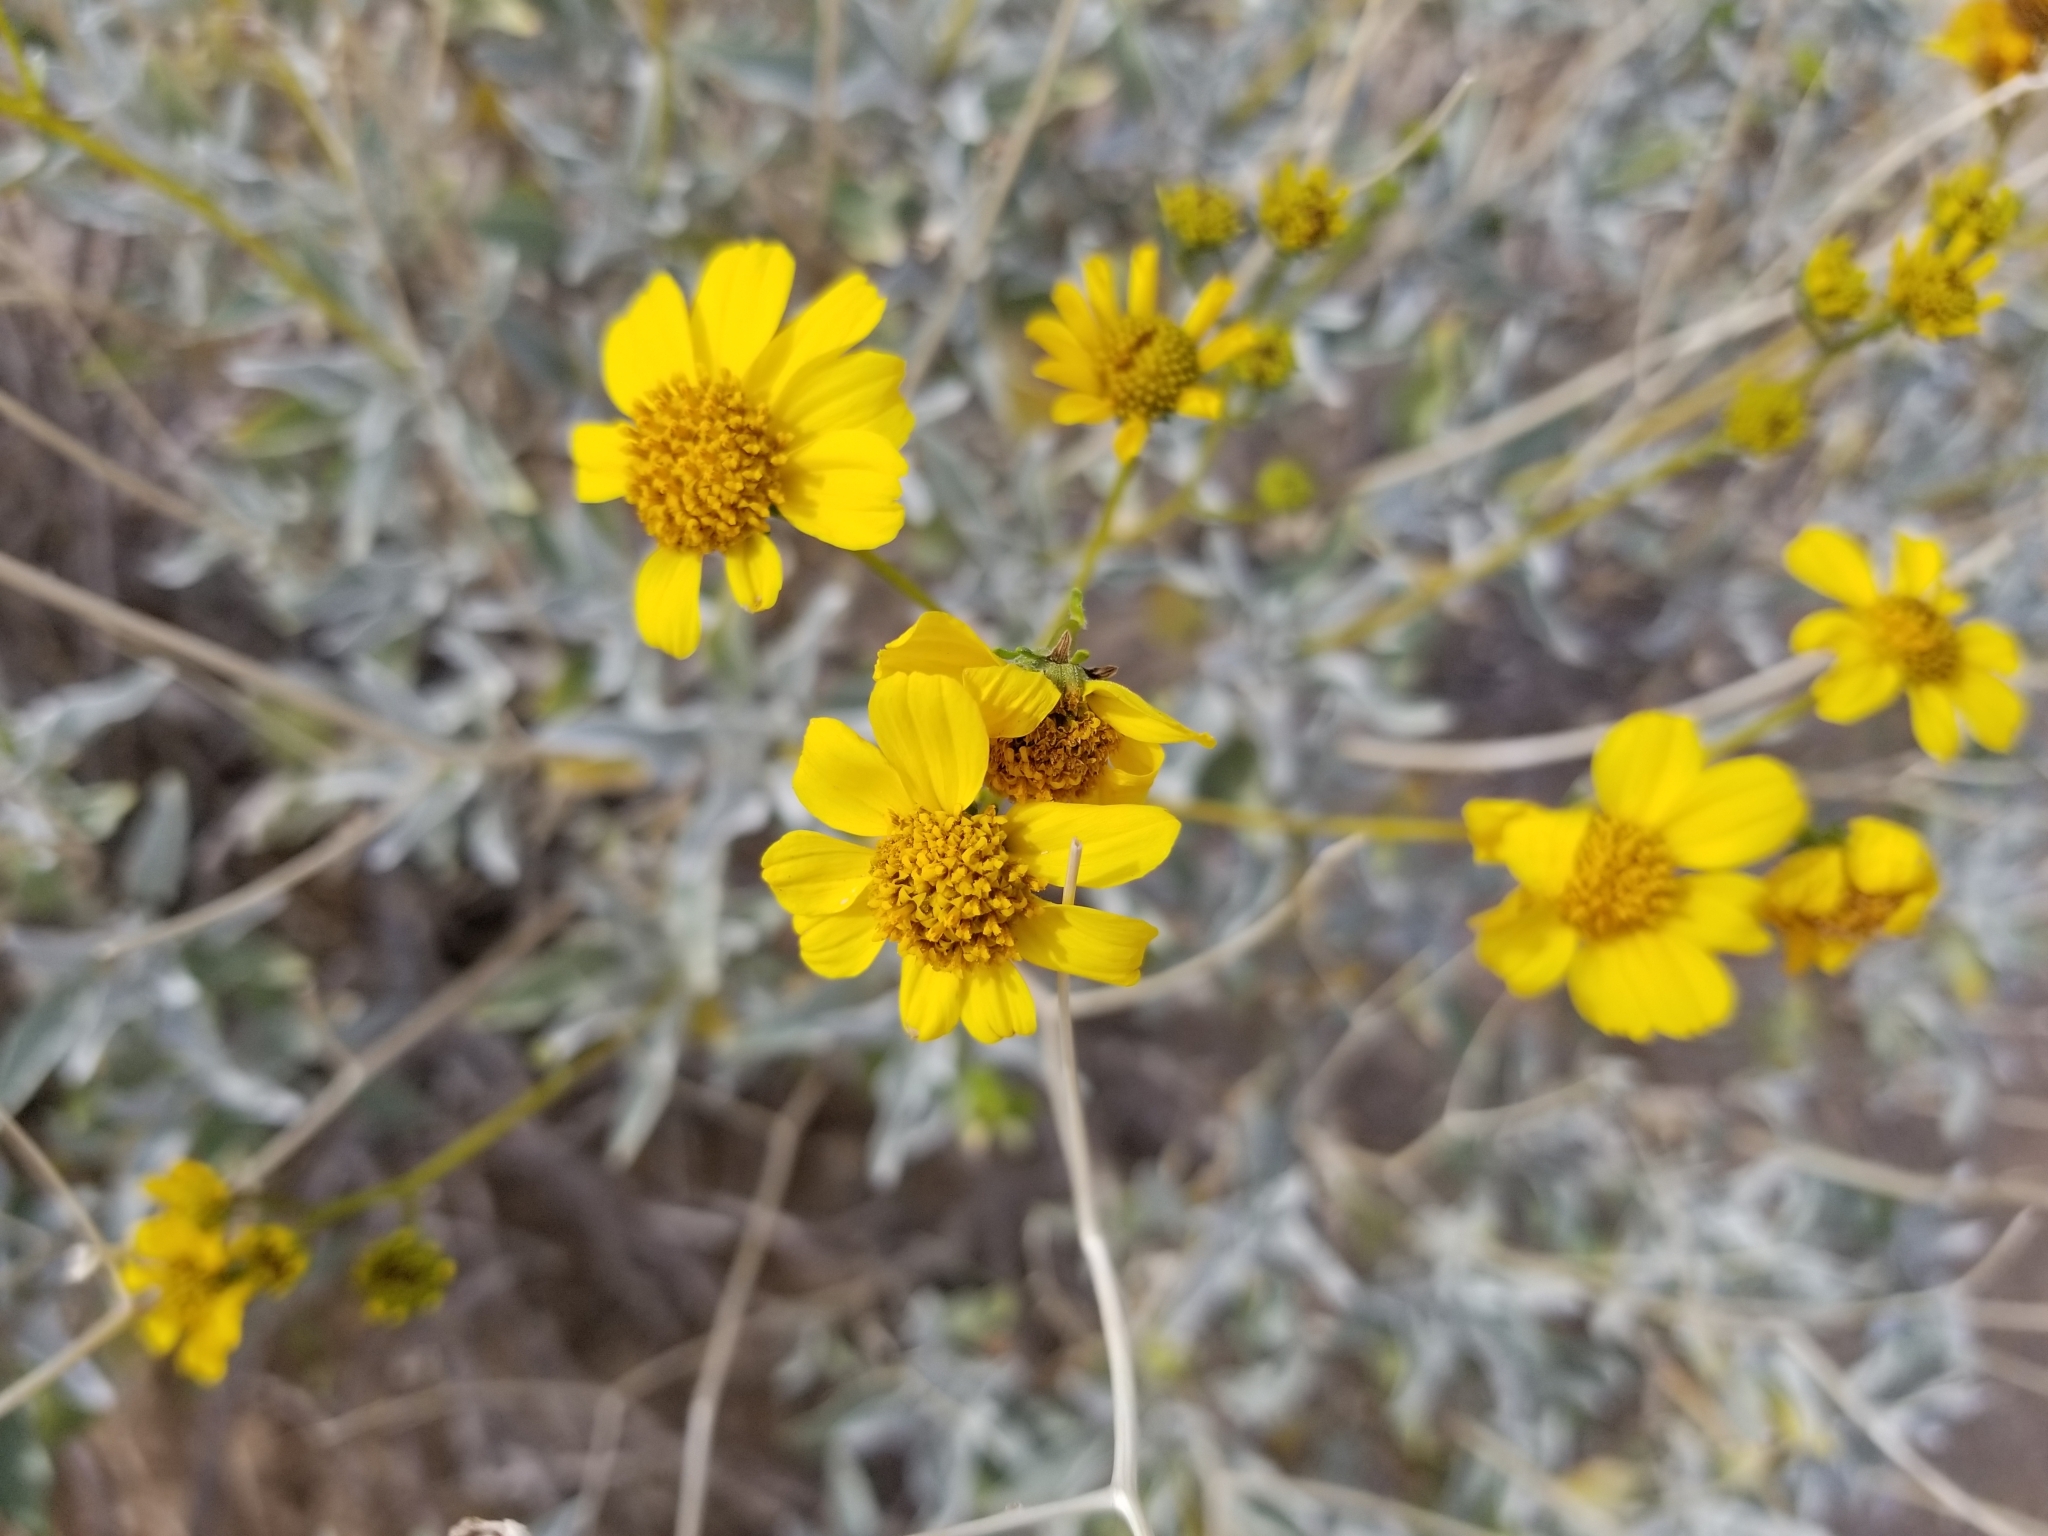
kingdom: Plantae
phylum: Tracheophyta
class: Magnoliopsida
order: Asterales
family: Asteraceae
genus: Encelia
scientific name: Encelia farinosa
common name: Brittlebush
